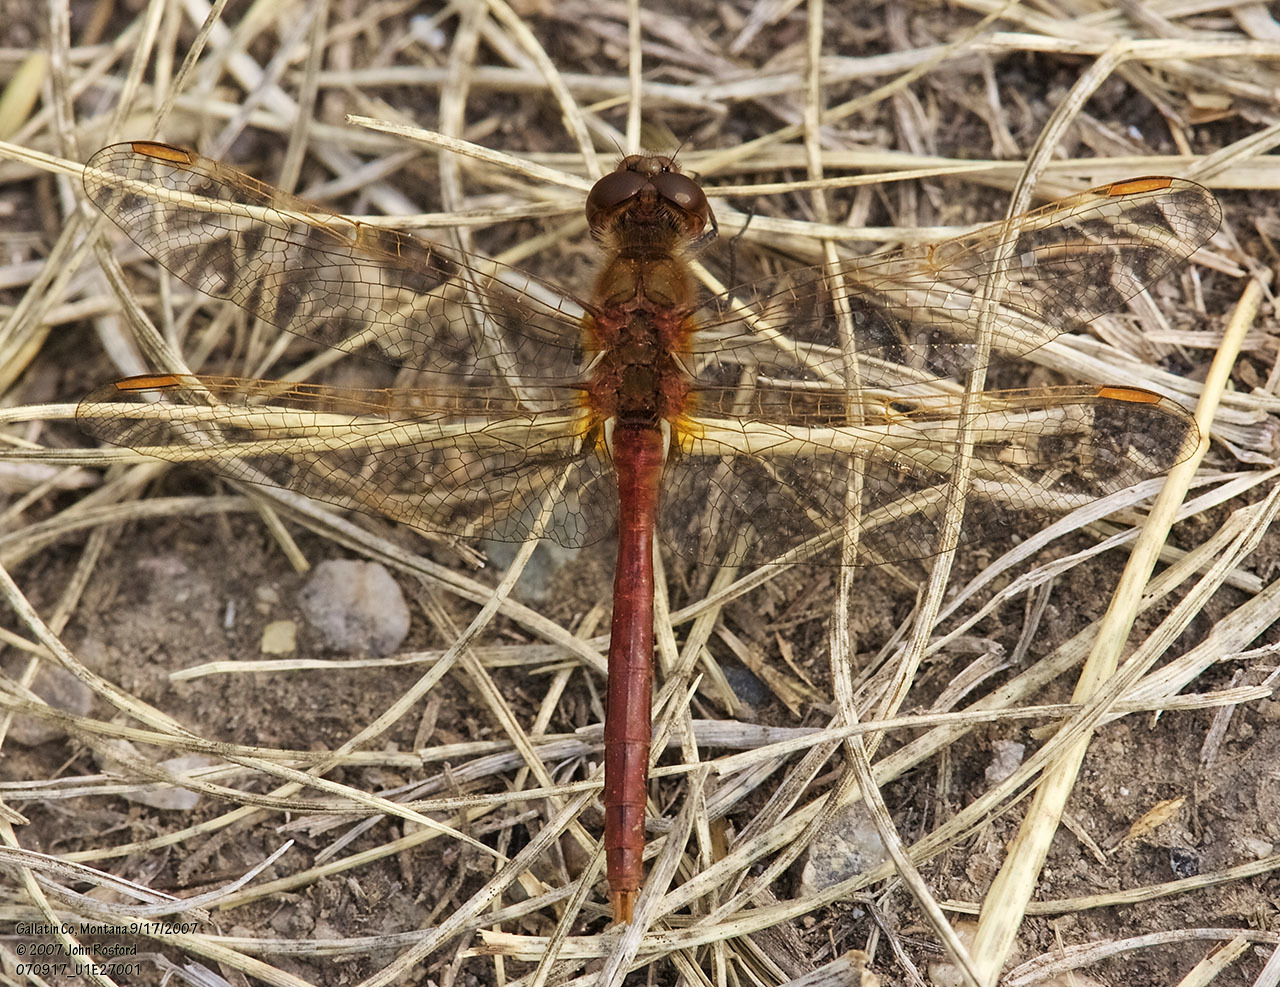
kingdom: Animalia
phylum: Arthropoda
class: Insecta
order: Odonata
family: Libellulidae
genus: Sympetrum
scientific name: Sympetrum costiferum
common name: Saffron-winged meadowhawk
